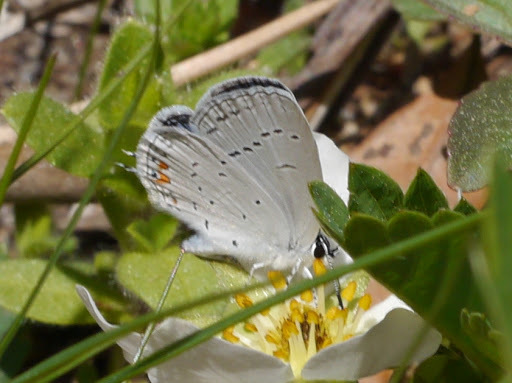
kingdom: Animalia
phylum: Arthropoda
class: Insecta
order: Lepidoptera
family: Lycaenidae
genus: Elkalyce
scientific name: Elkalyce comyntas
